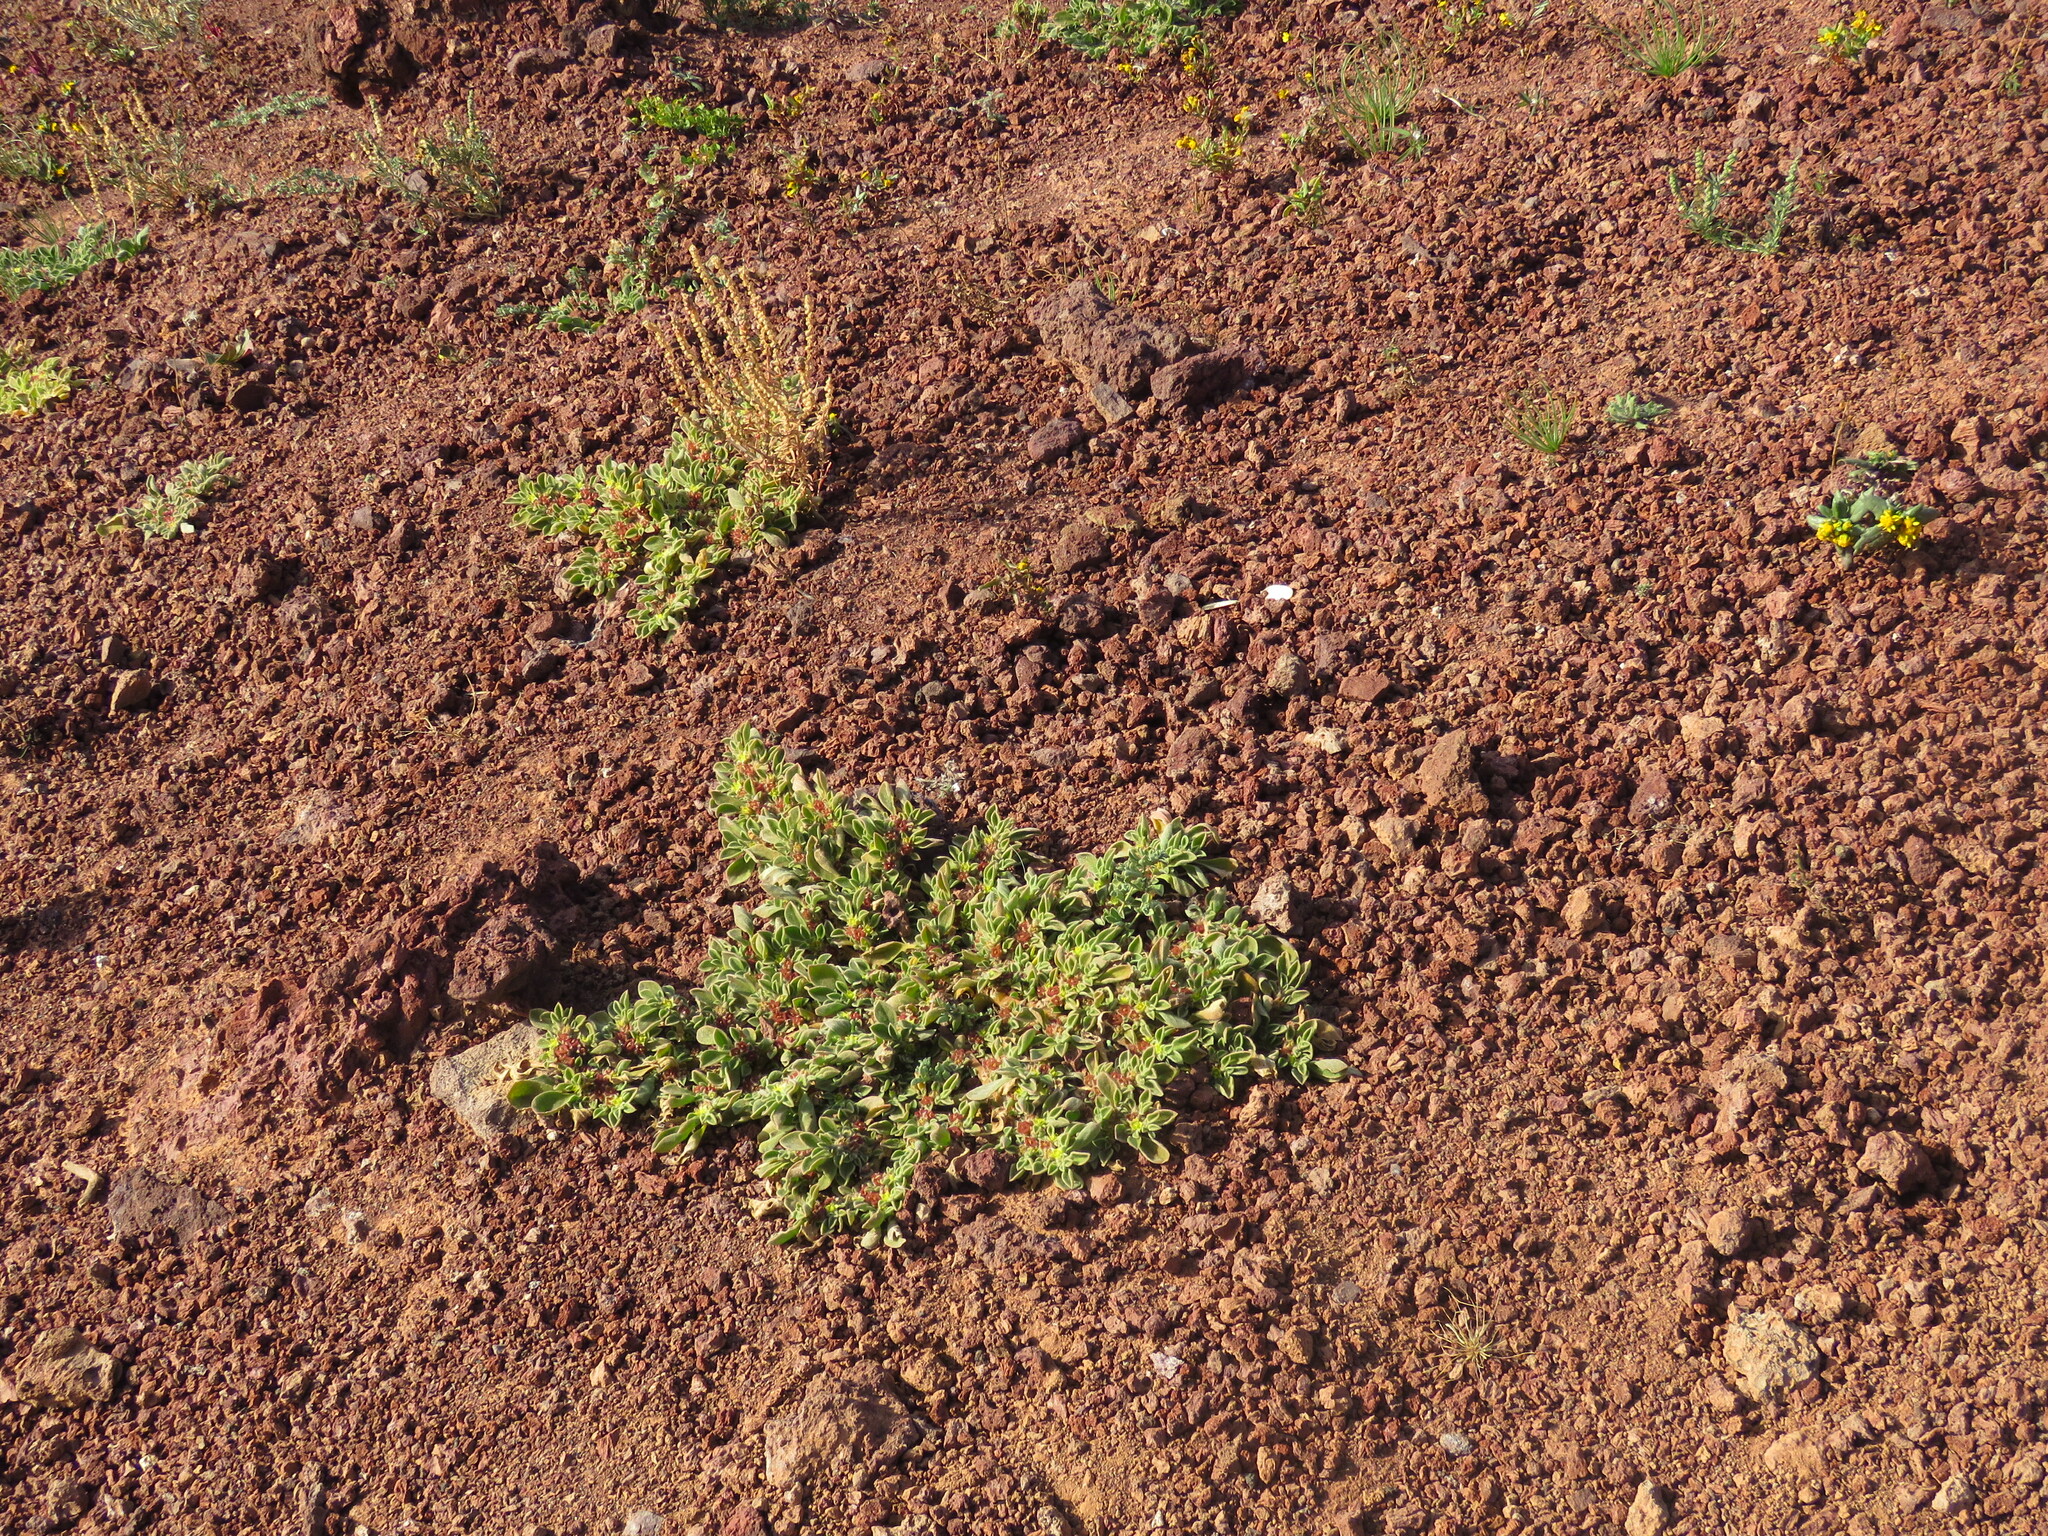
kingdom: Plantae
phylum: Tracheophyta
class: Magnoliopsida
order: Caryophyllales
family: Aizoaceae
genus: Aizoon
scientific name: Aizoon canariense
